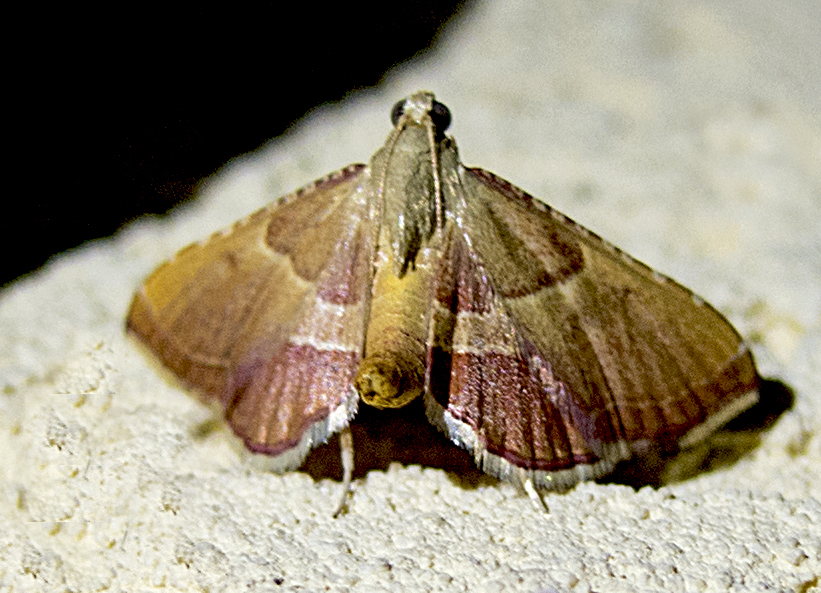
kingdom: Animalia
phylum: Arthropoda
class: Insecta
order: Lepidoptera
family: Pyralidae
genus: Endotricha
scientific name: Endotricha flammealis
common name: Rosy tabby
